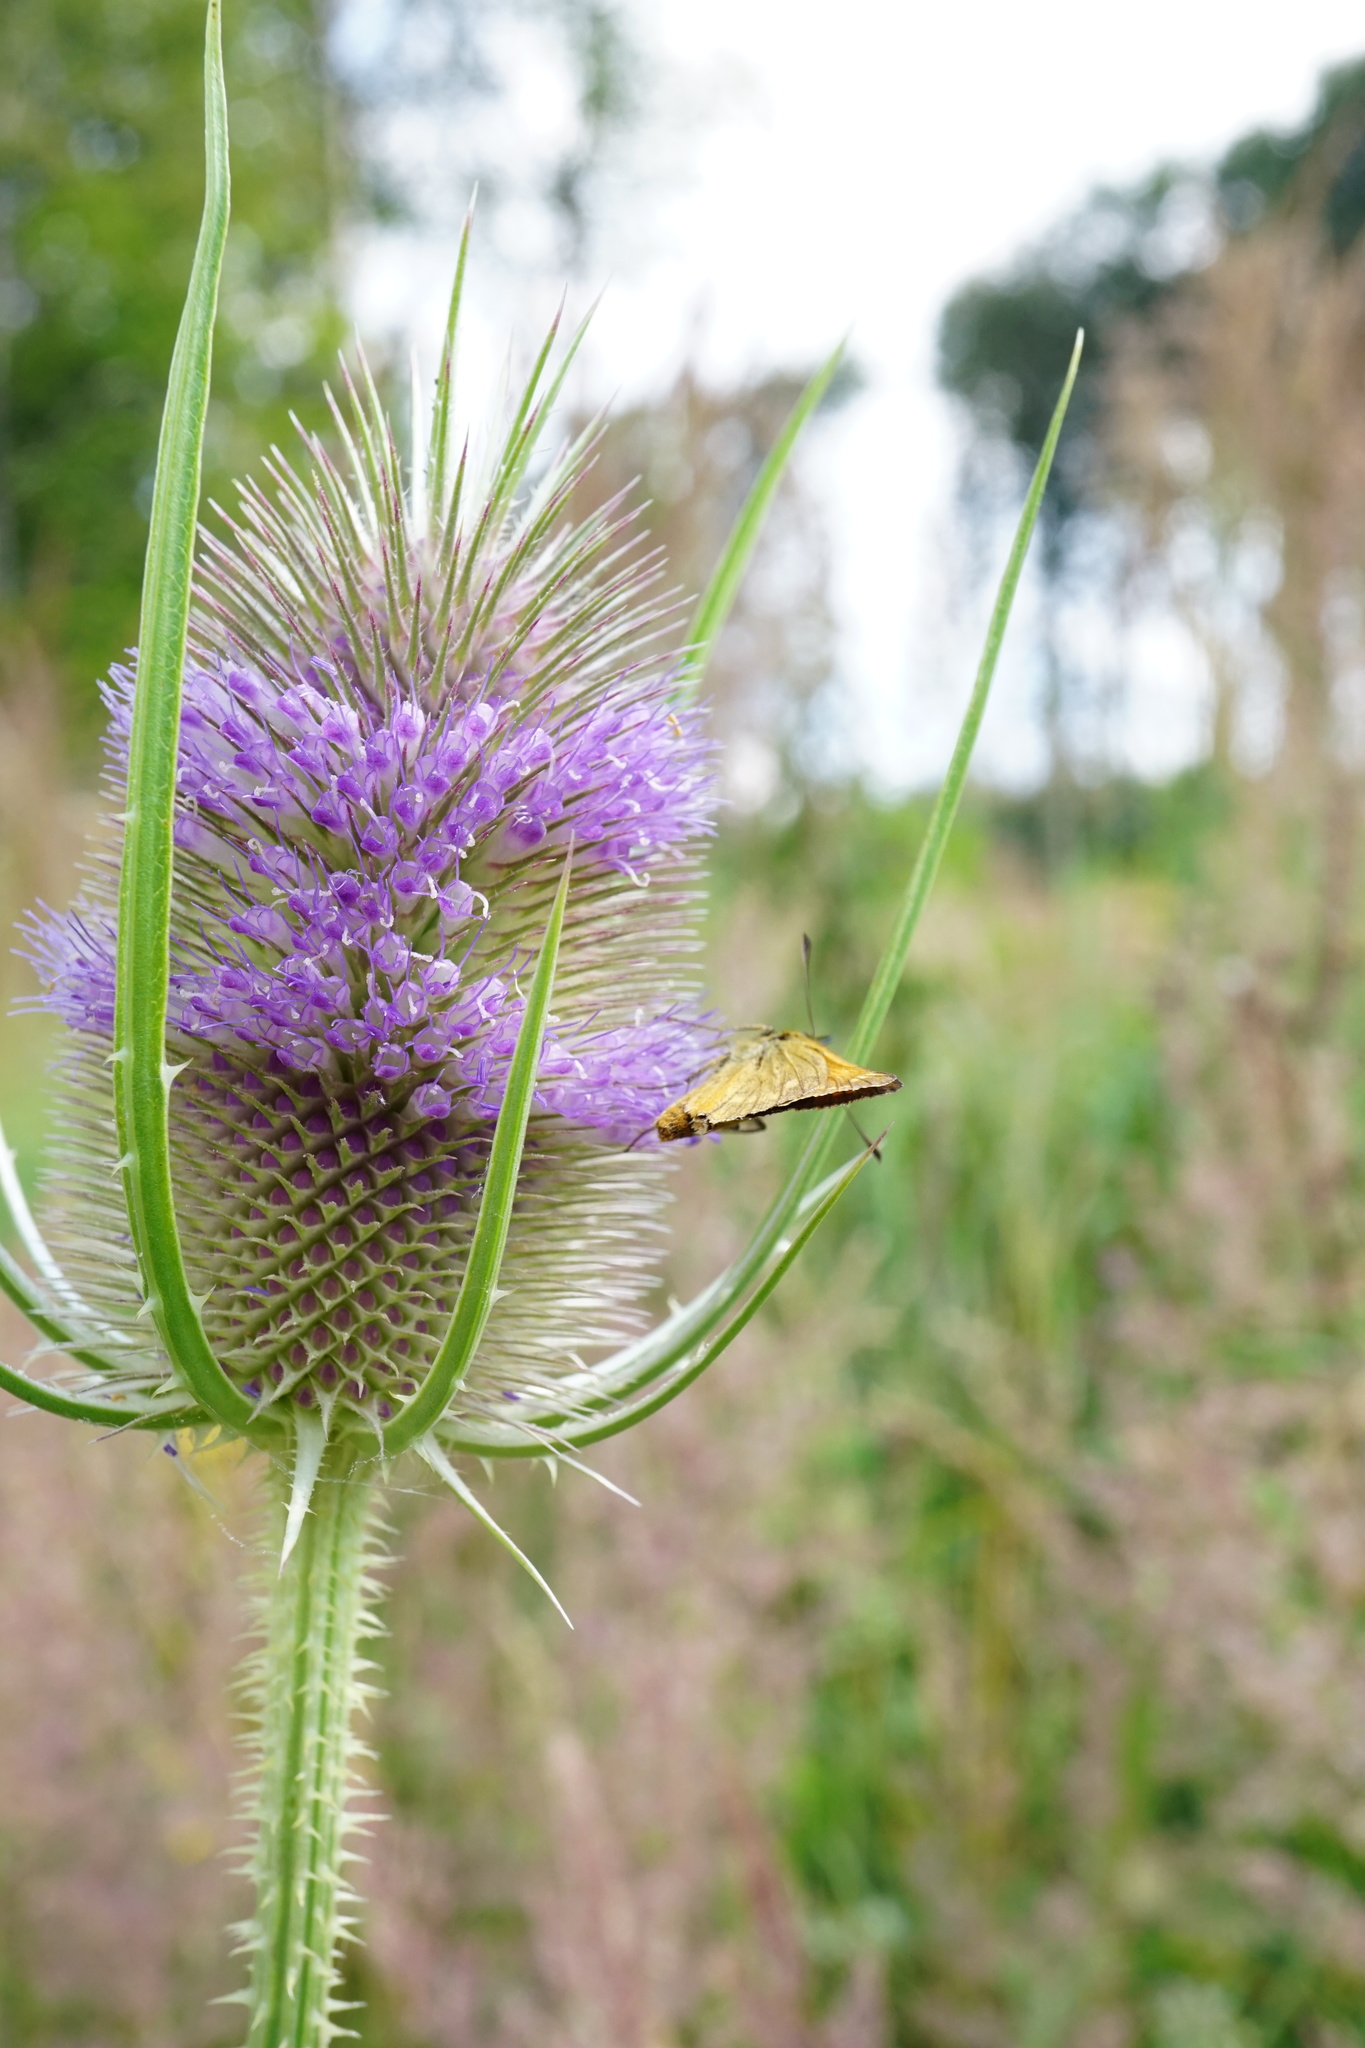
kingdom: Animalia
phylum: Arthropoda
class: Insecta
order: Lepidoptera
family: Hesperiidae
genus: Ochlodes
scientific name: Ochlodes venata
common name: Large skipper
